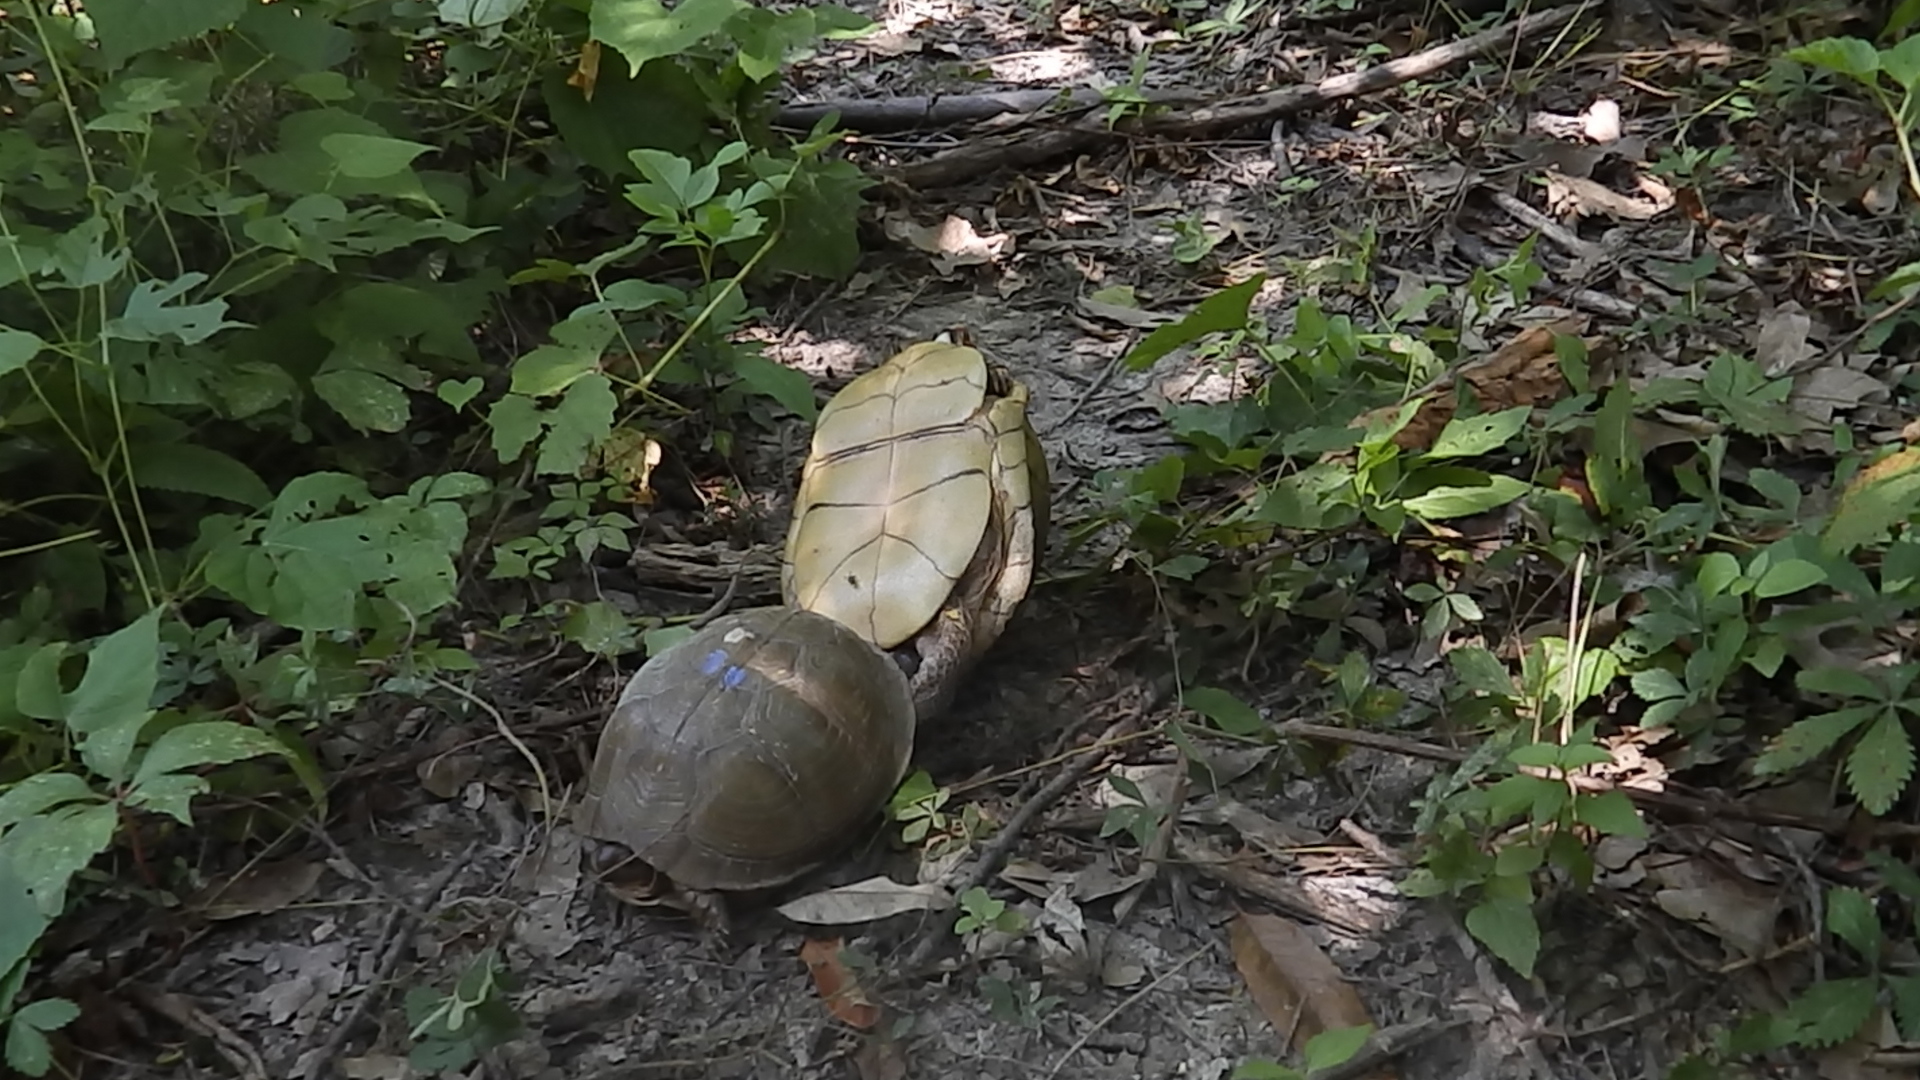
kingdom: Animalia
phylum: Chordata
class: Testudines
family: Emydidae
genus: Terrapene
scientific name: Terrapene carolina
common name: Common box turtle
